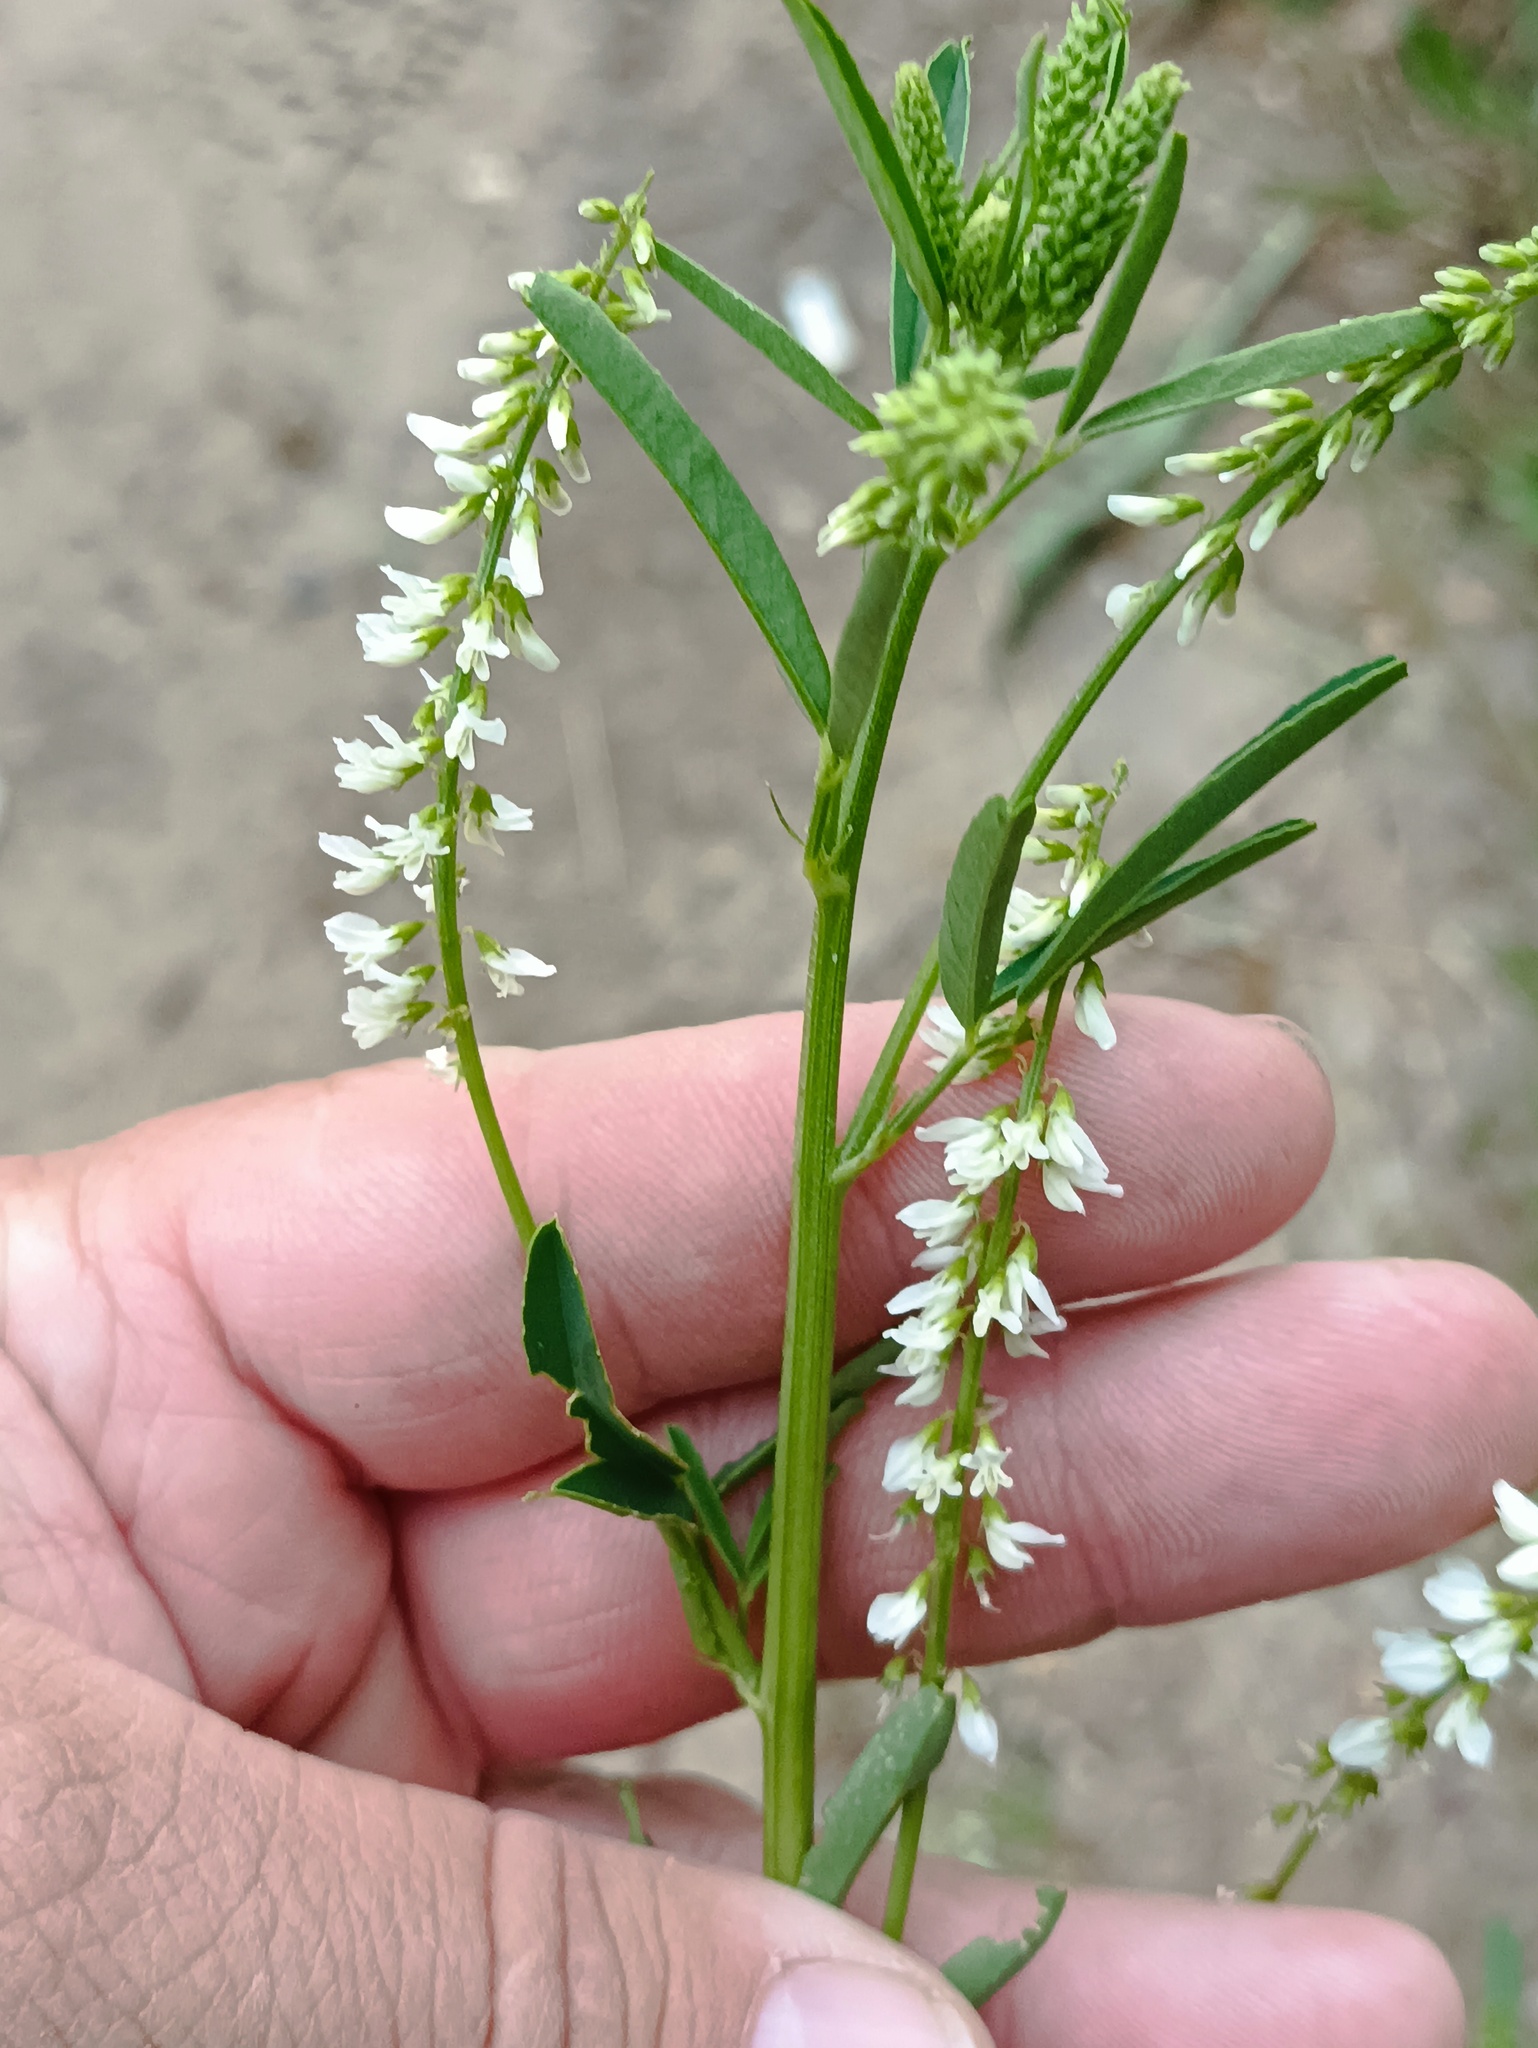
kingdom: Plantae
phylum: Tracheophyta
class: Magnoliopsida
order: Fabales
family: Fabaceae
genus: Melilotus
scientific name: Melilotus albus
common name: White melilot
